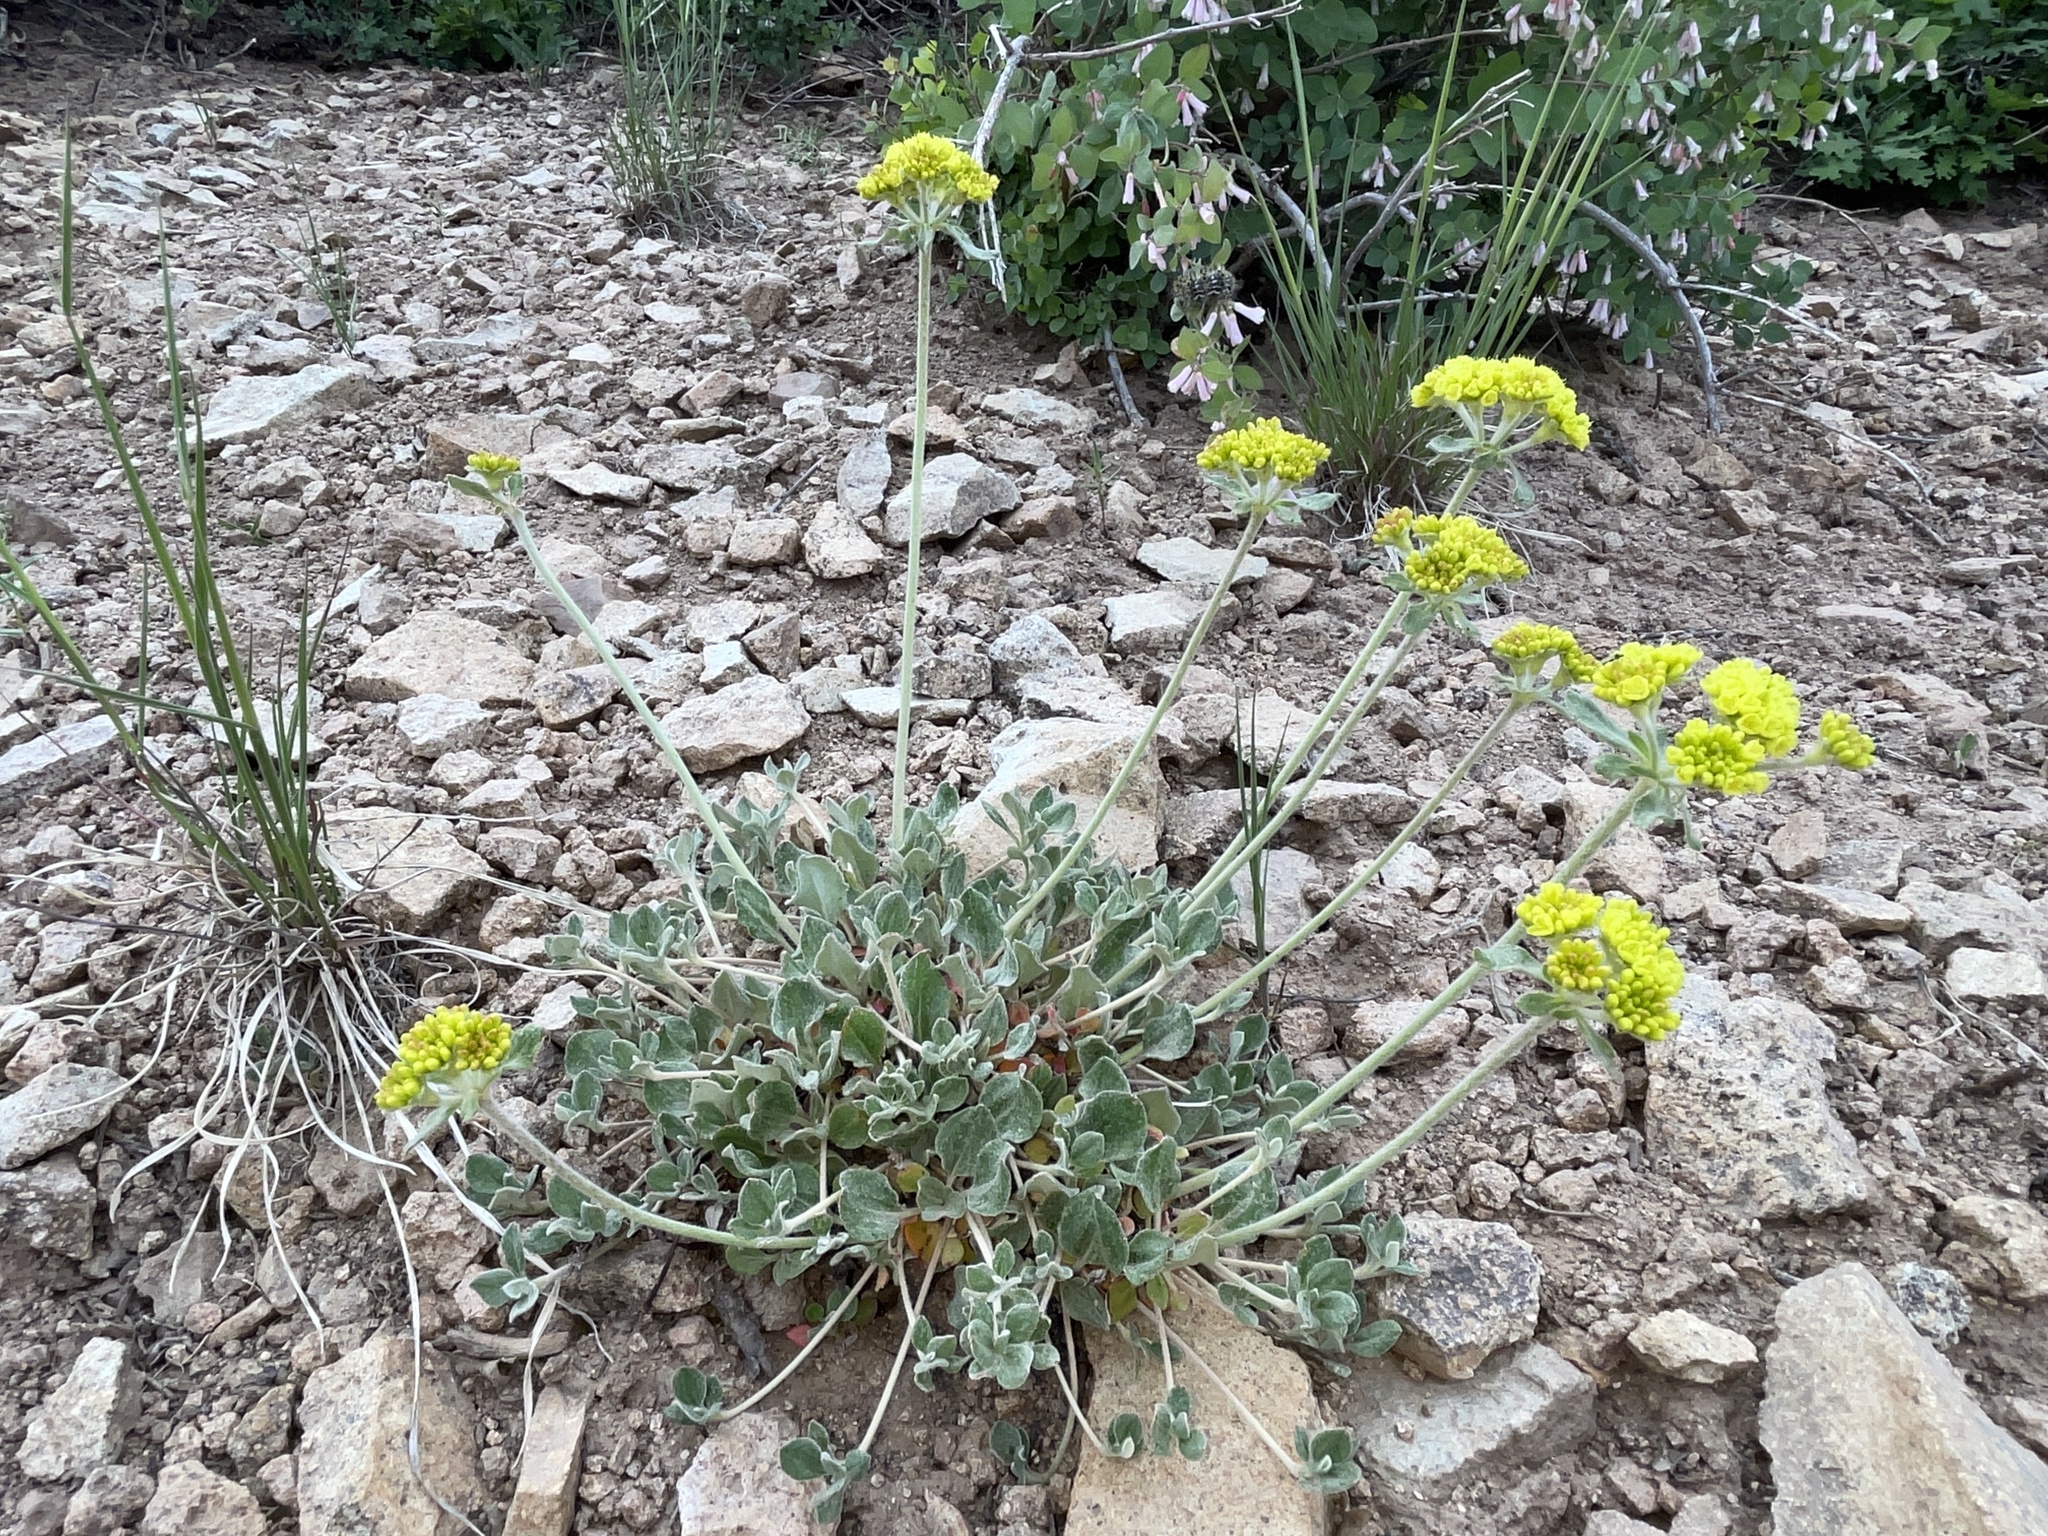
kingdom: Plantae
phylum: Tracheophyta
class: Magnoliopsida
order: Caryophyllales
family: Polygonaceae
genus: Eriogonum
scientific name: Eriogonum umbellatum
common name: Sulfur-buckwheat
